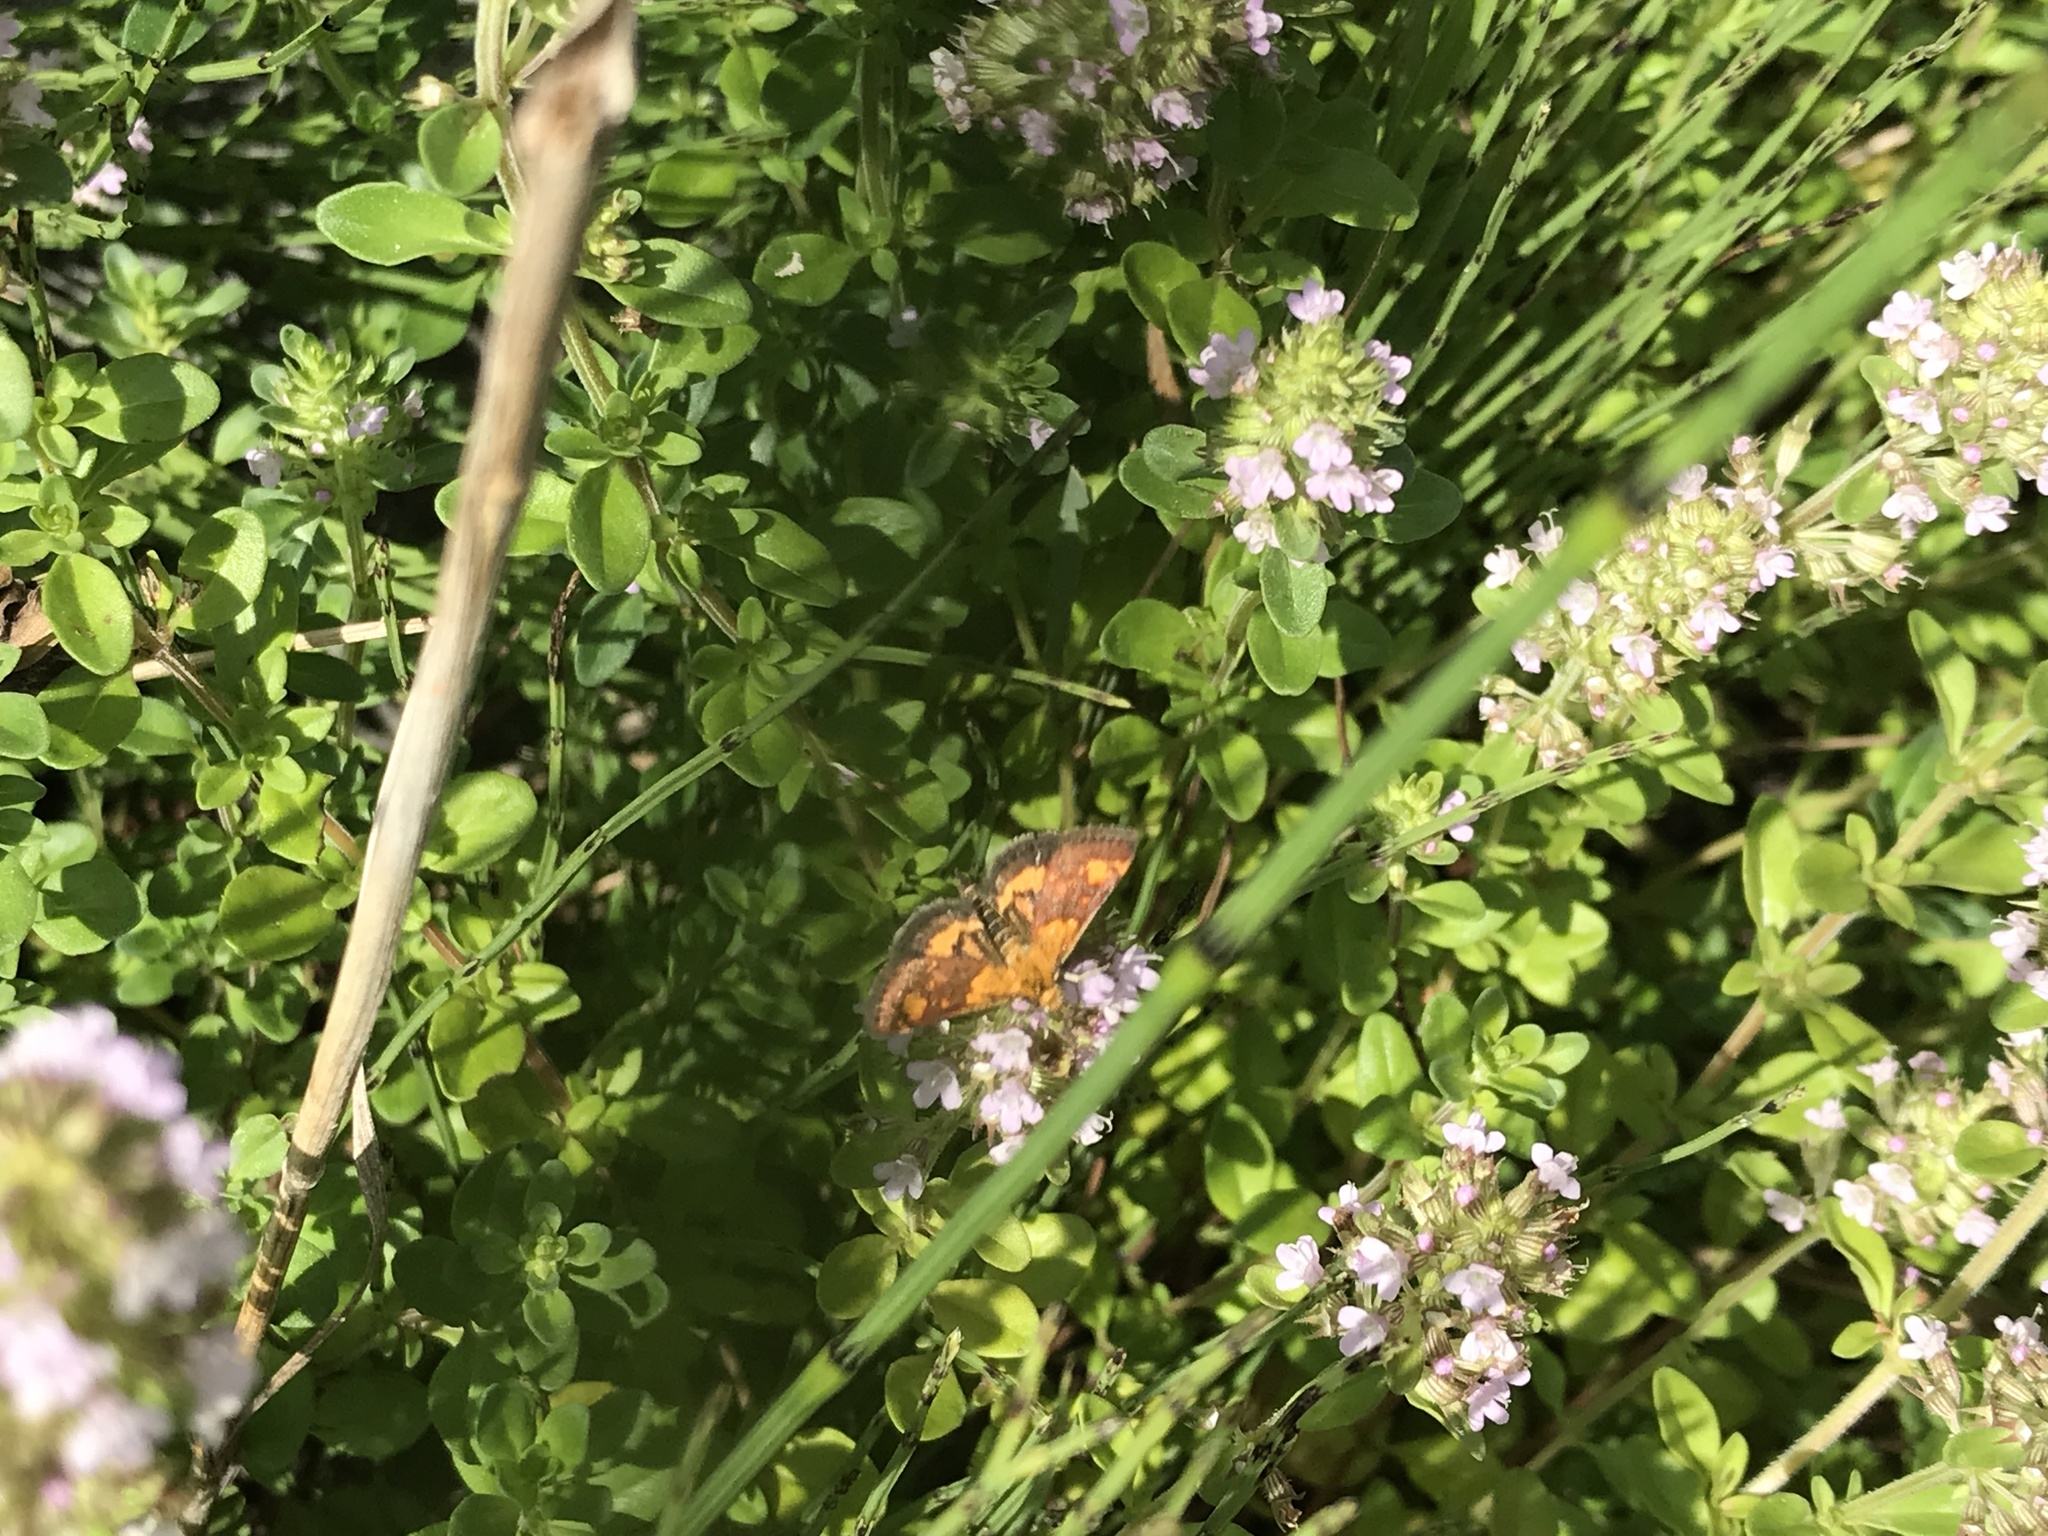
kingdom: Animalia
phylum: Arthropoda
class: Insecta
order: Lepidoptera
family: Crambidae
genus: Pyrausta
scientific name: Pyrausta orphisalis
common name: Orange mint moth
